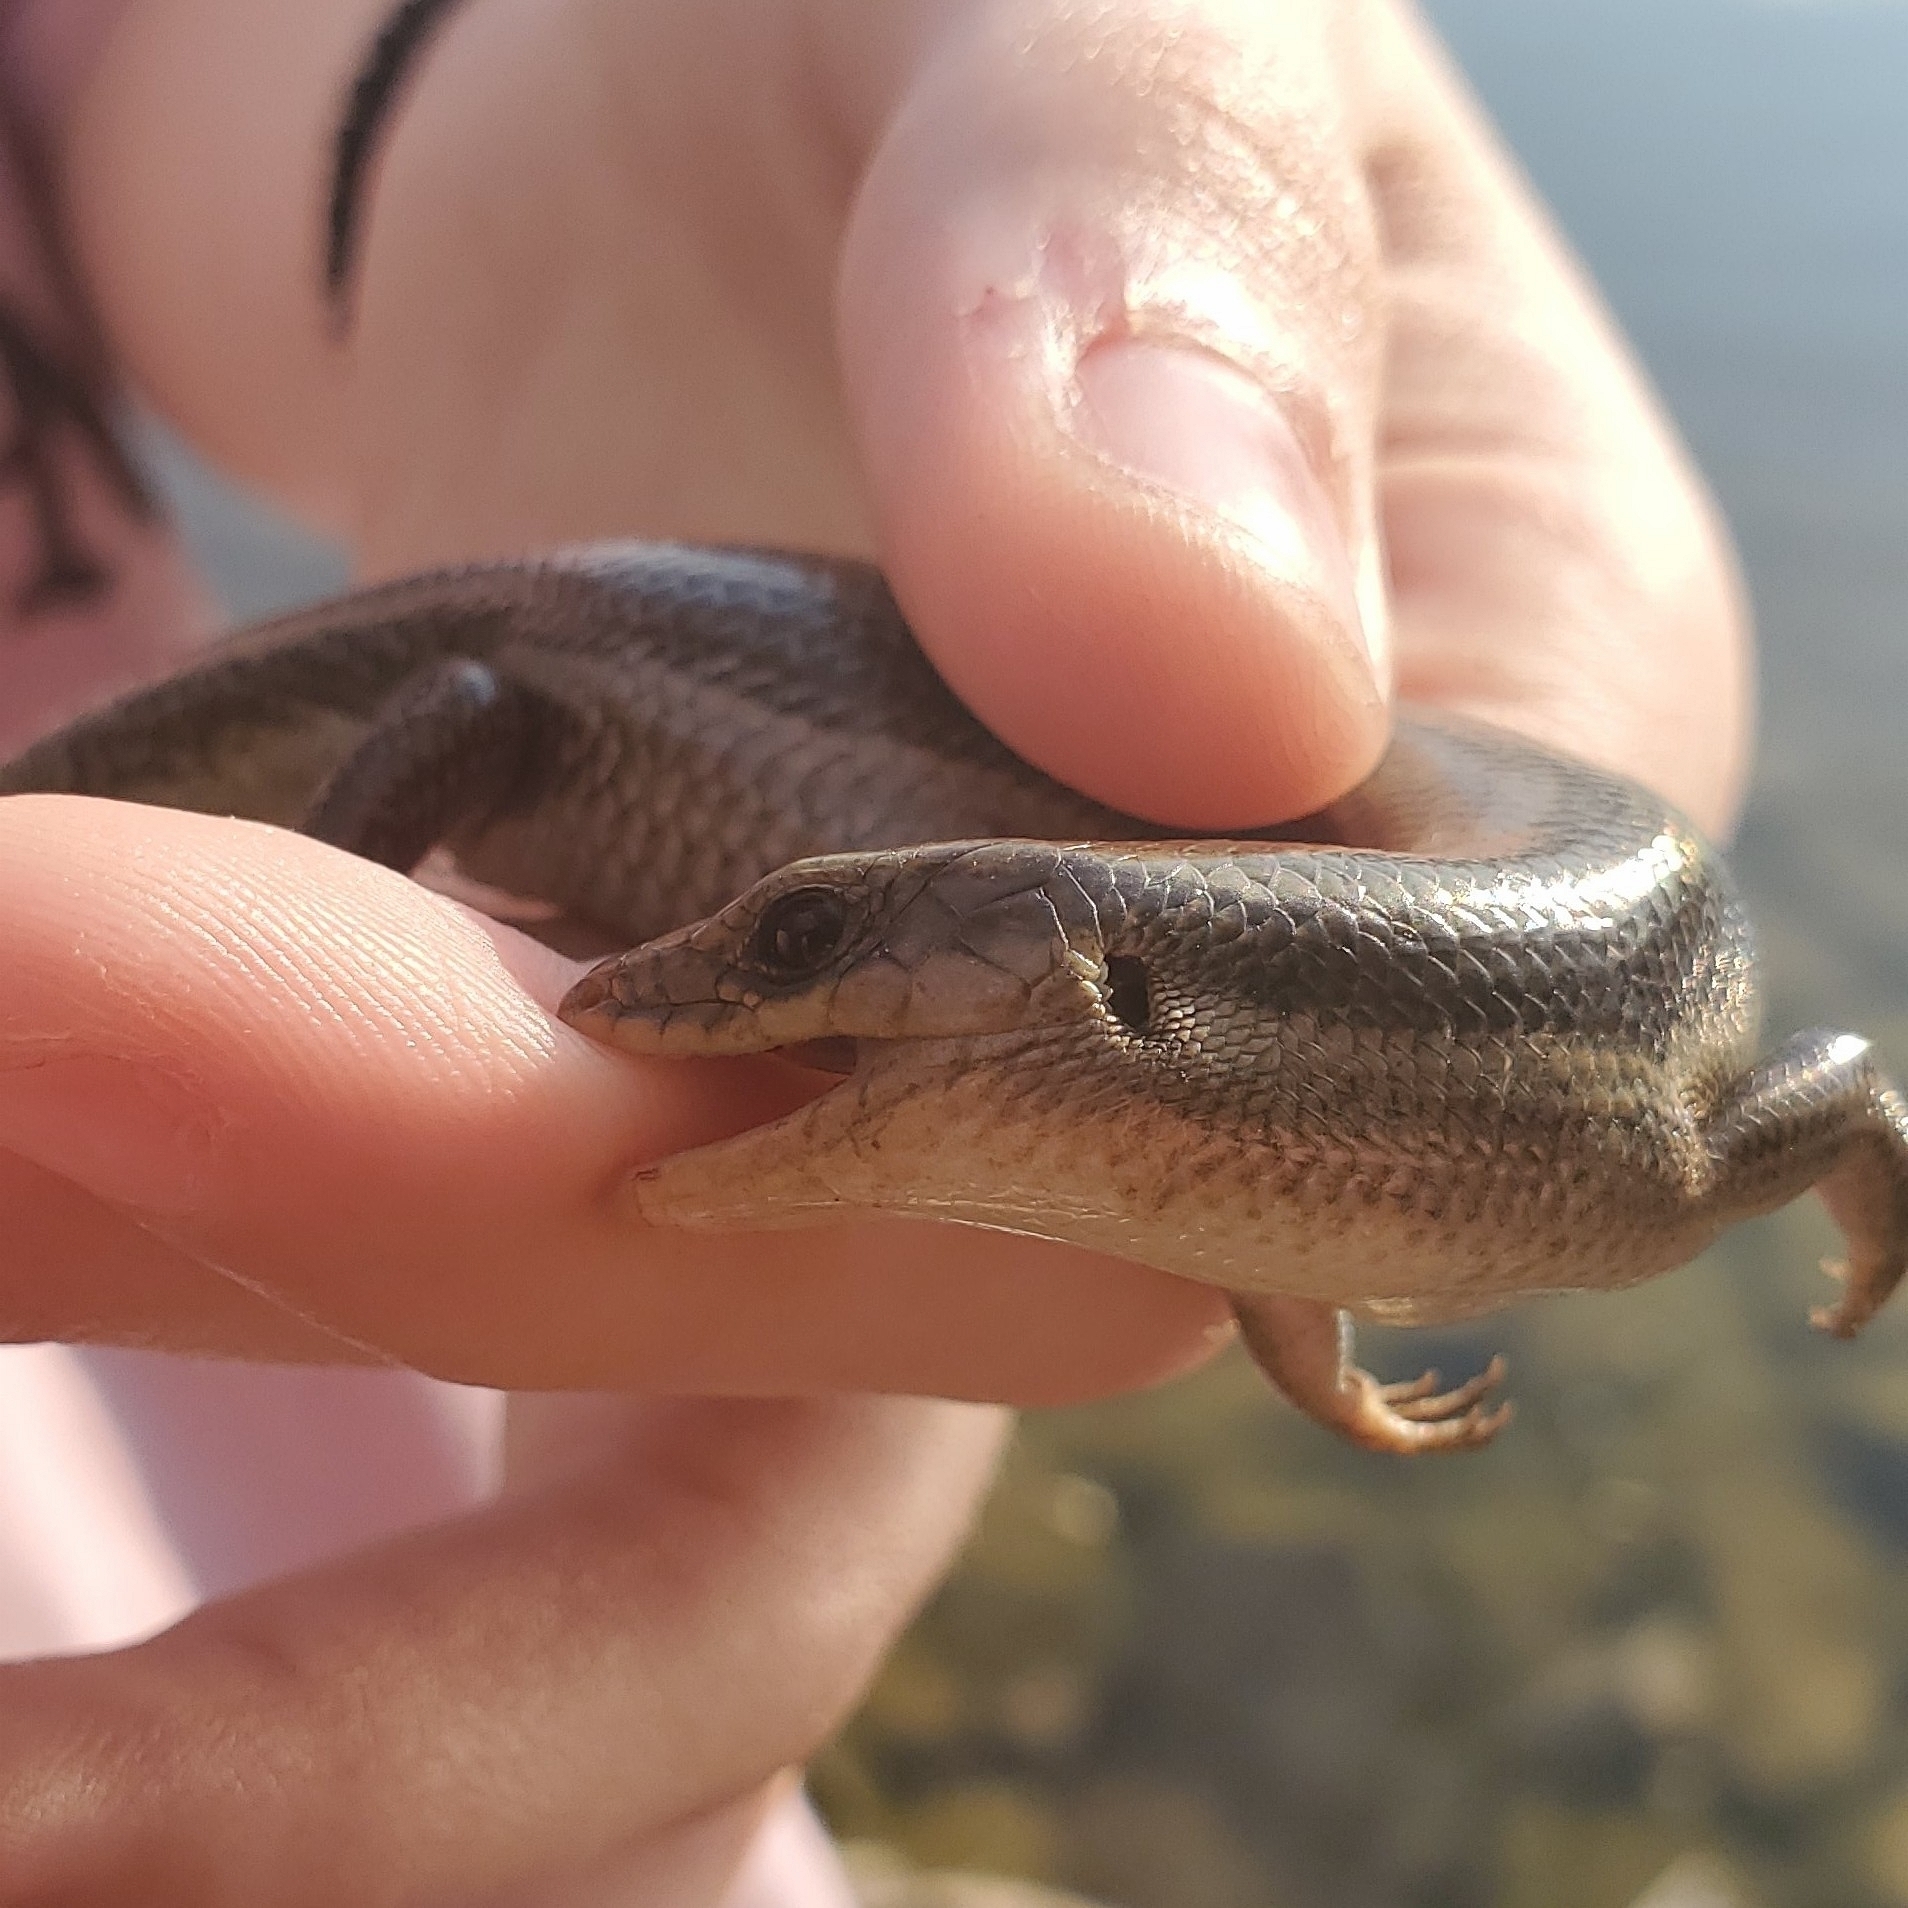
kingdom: Animalia
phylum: Chordata
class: Squamata
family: Scincidae
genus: Plestiodon
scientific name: Plestiodon fasciatus
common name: Five-lined skink
